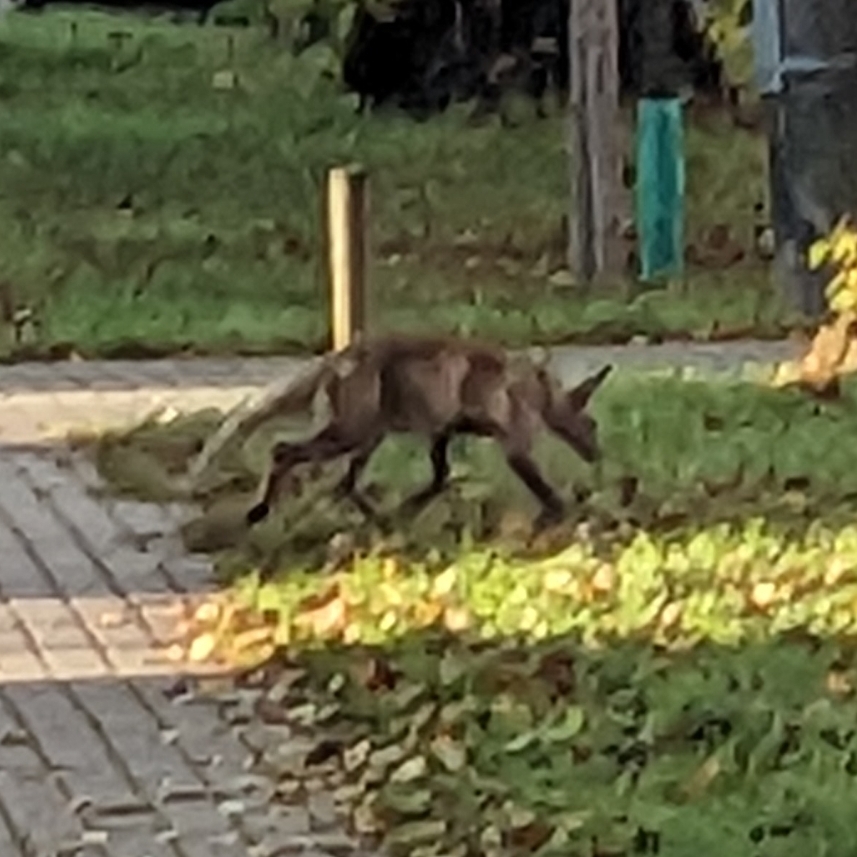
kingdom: Animalia
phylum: Chordata
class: Mammalia
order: Carnivora
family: Canidae
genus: Vulpes
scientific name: Vulpes vulpes
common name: Red fox
